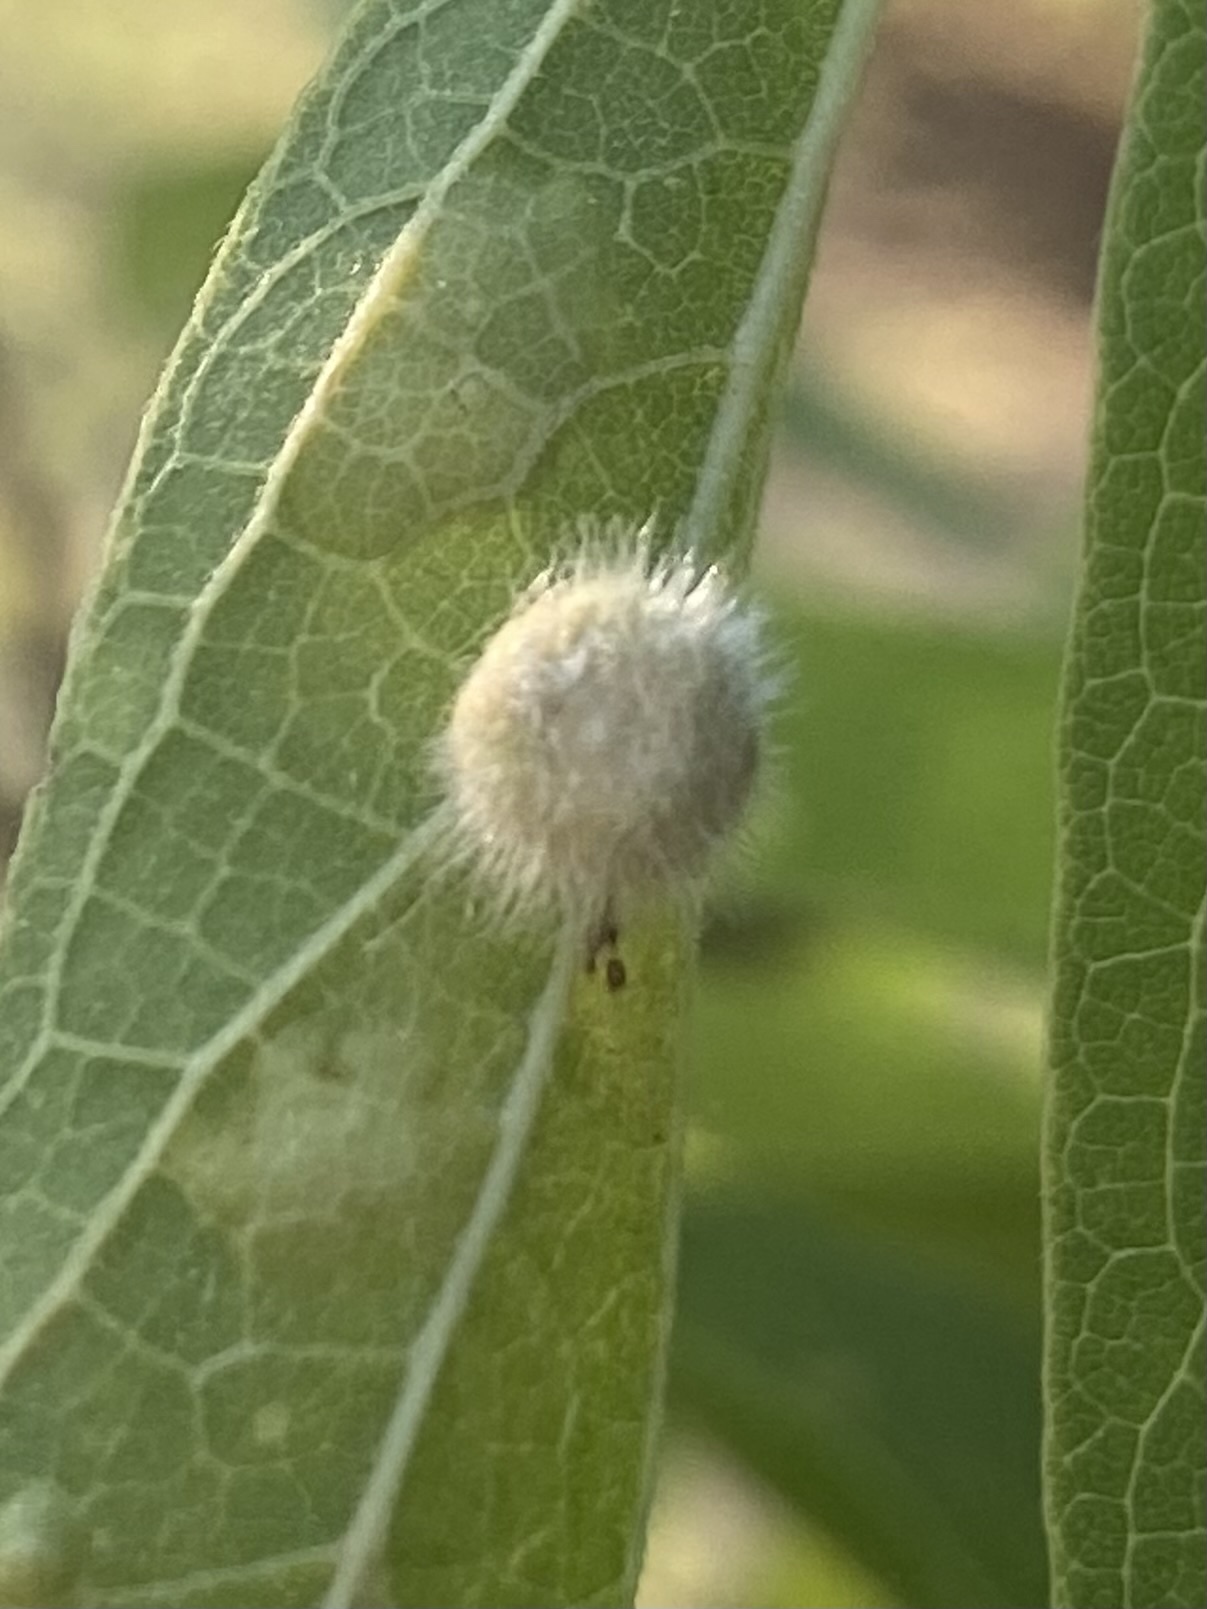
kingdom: Animalia
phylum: Arthropoda
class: Insecta
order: Diptera
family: Cecidomyiidae
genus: Celticecis
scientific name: Celticecis pubescens
